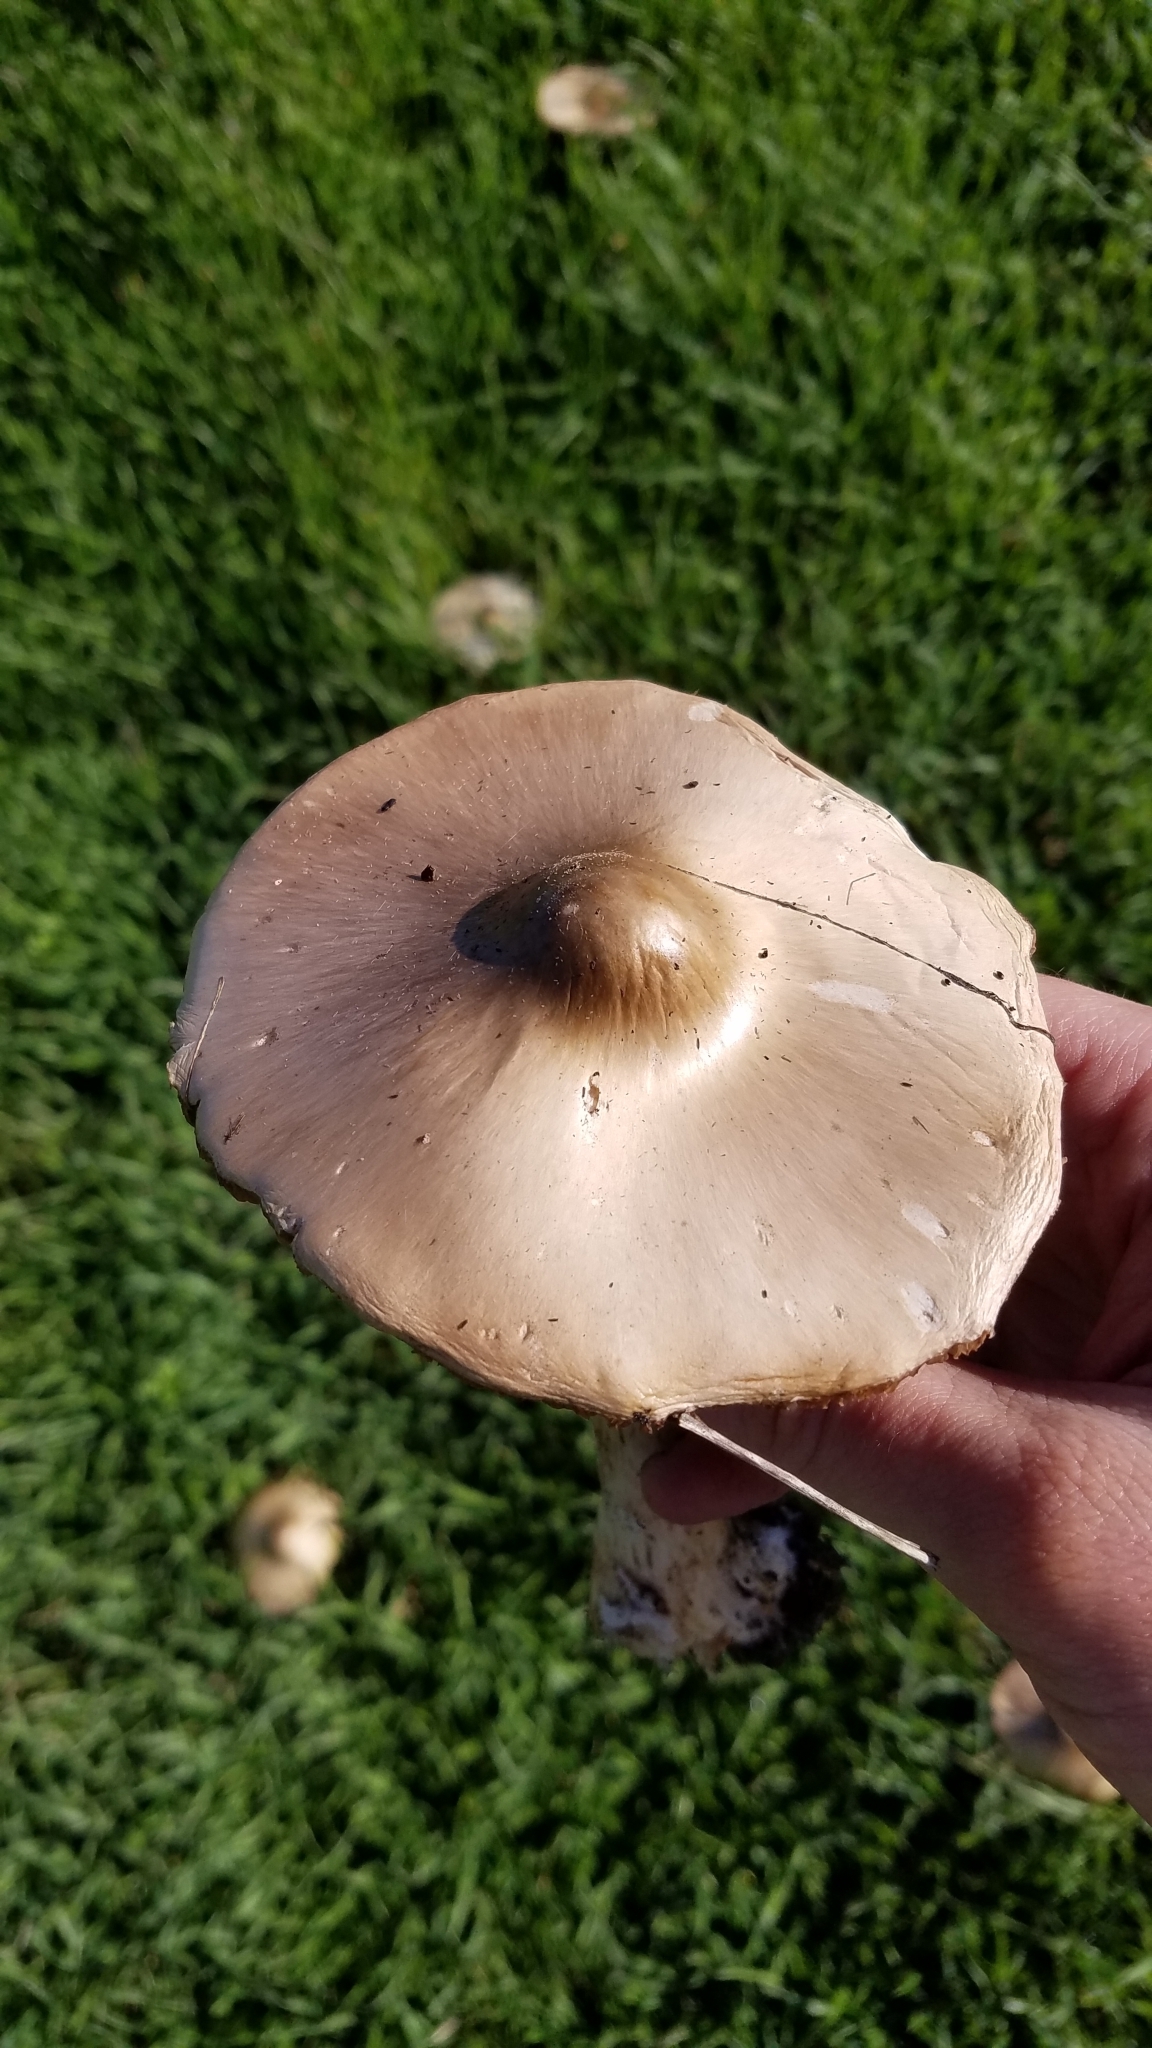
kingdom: Fungi
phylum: Basidiomycota
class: Agaricomycetes
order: Agaricales
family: Pluteaceae
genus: Volvopluteus
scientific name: Volvopluteus gloiocephalus
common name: Stubble rosegill
